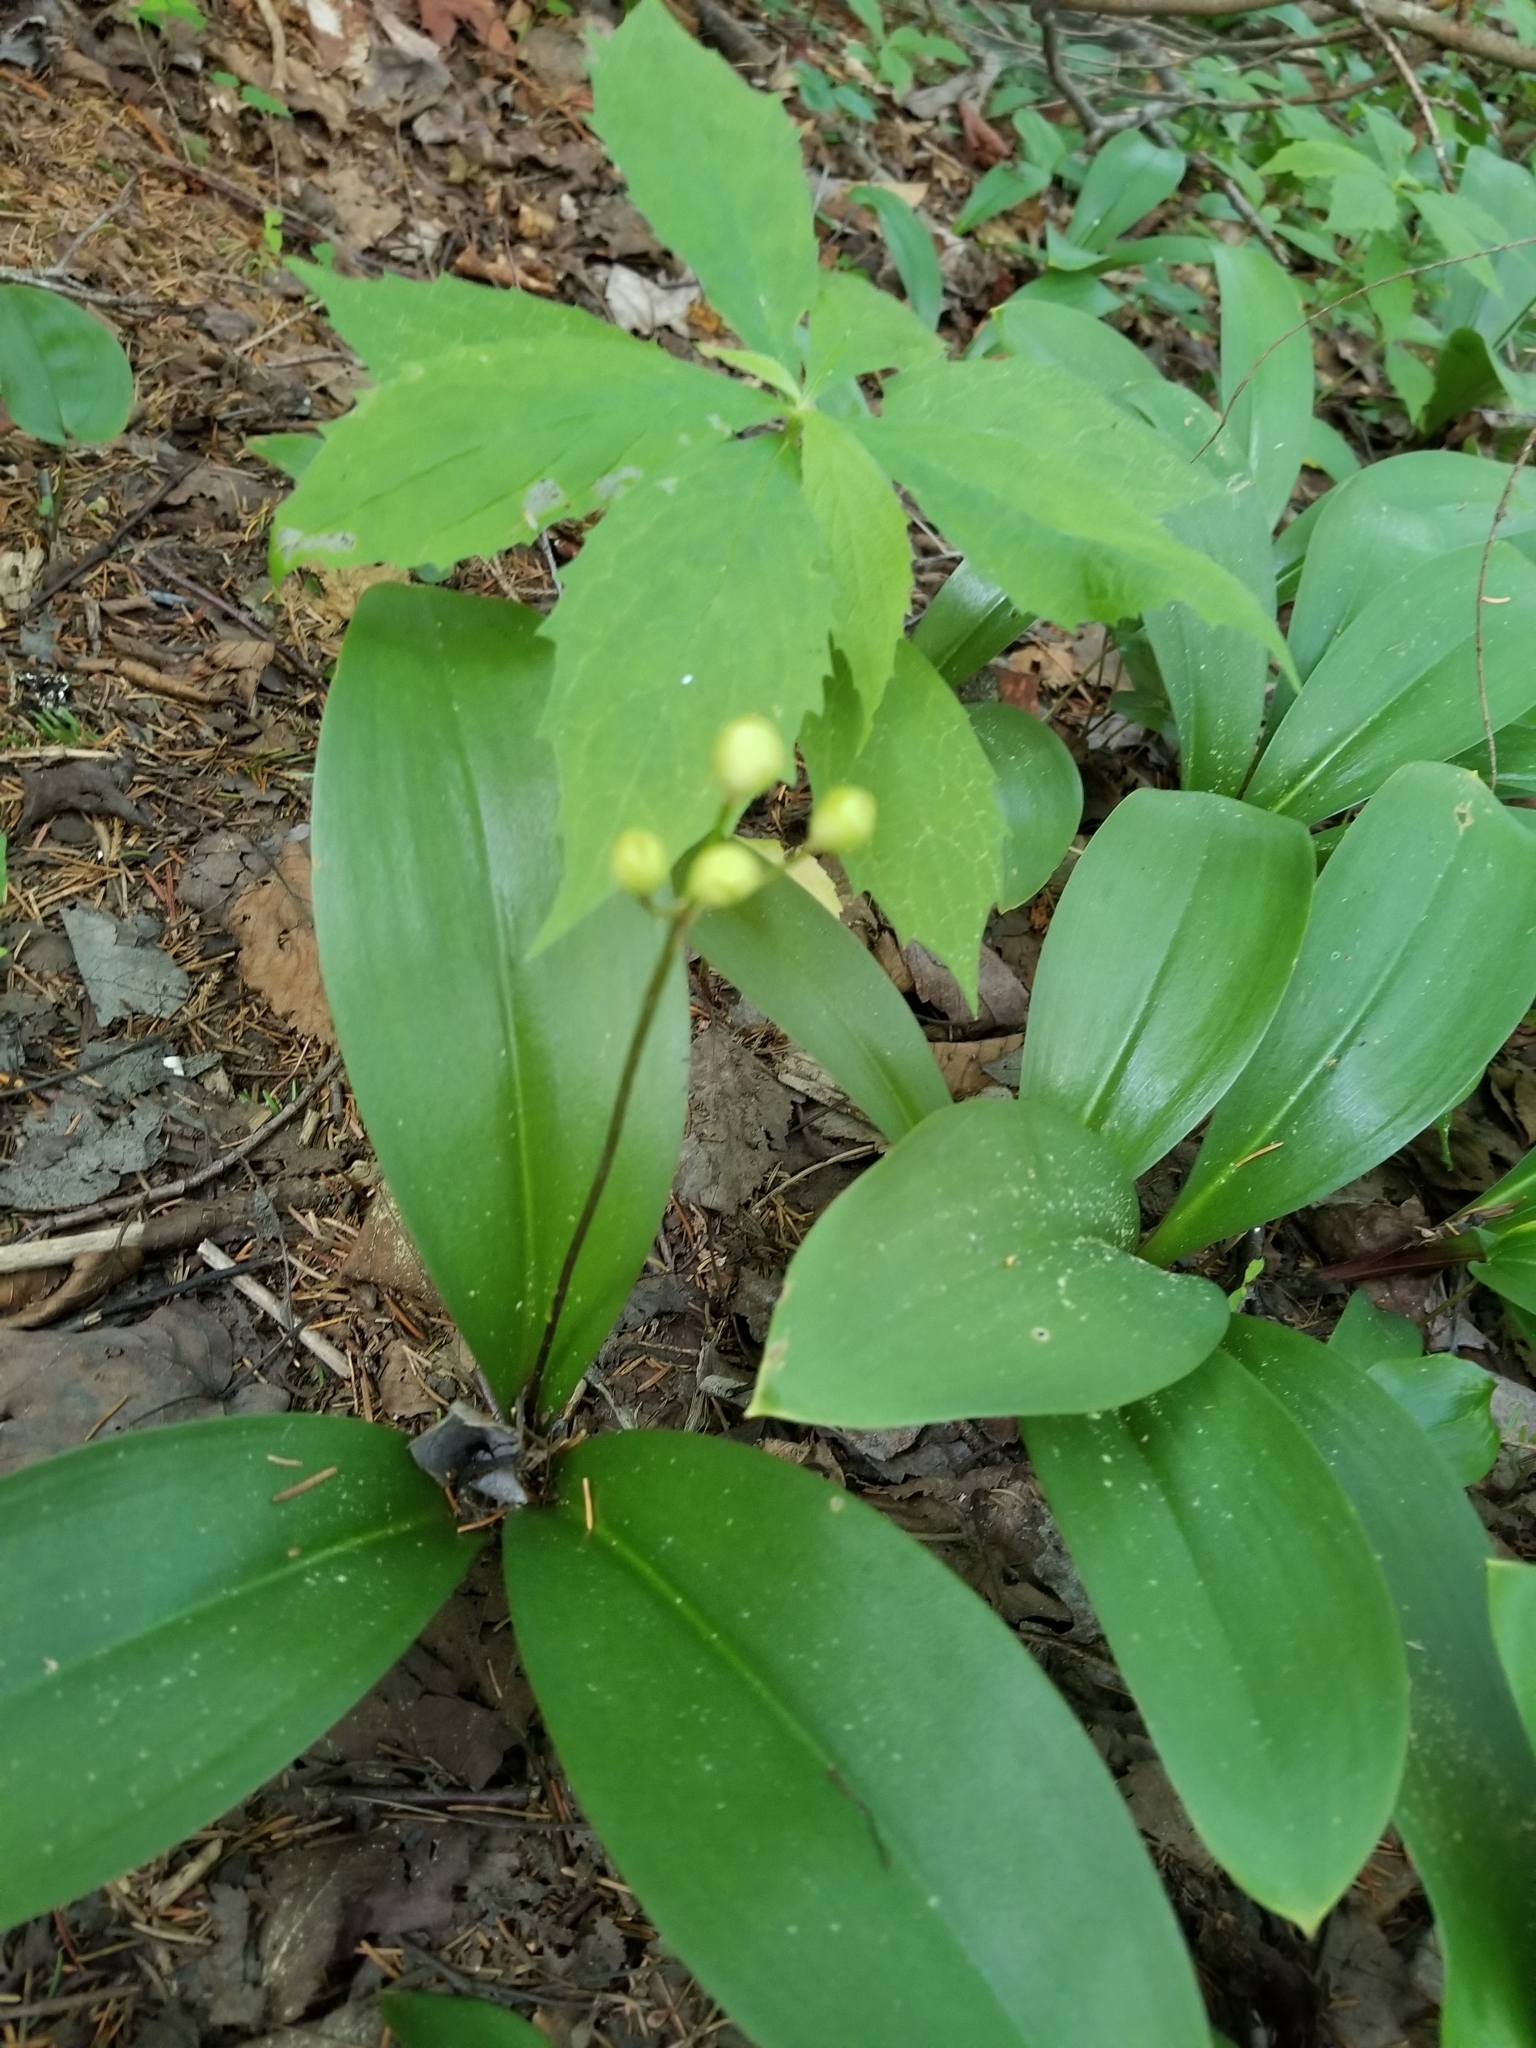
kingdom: Plantae
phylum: Tracheophyta
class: Liliopsida
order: Liliales
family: Liliaceae
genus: Clintonia
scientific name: Clintonia borealis
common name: Yellow clintonia
